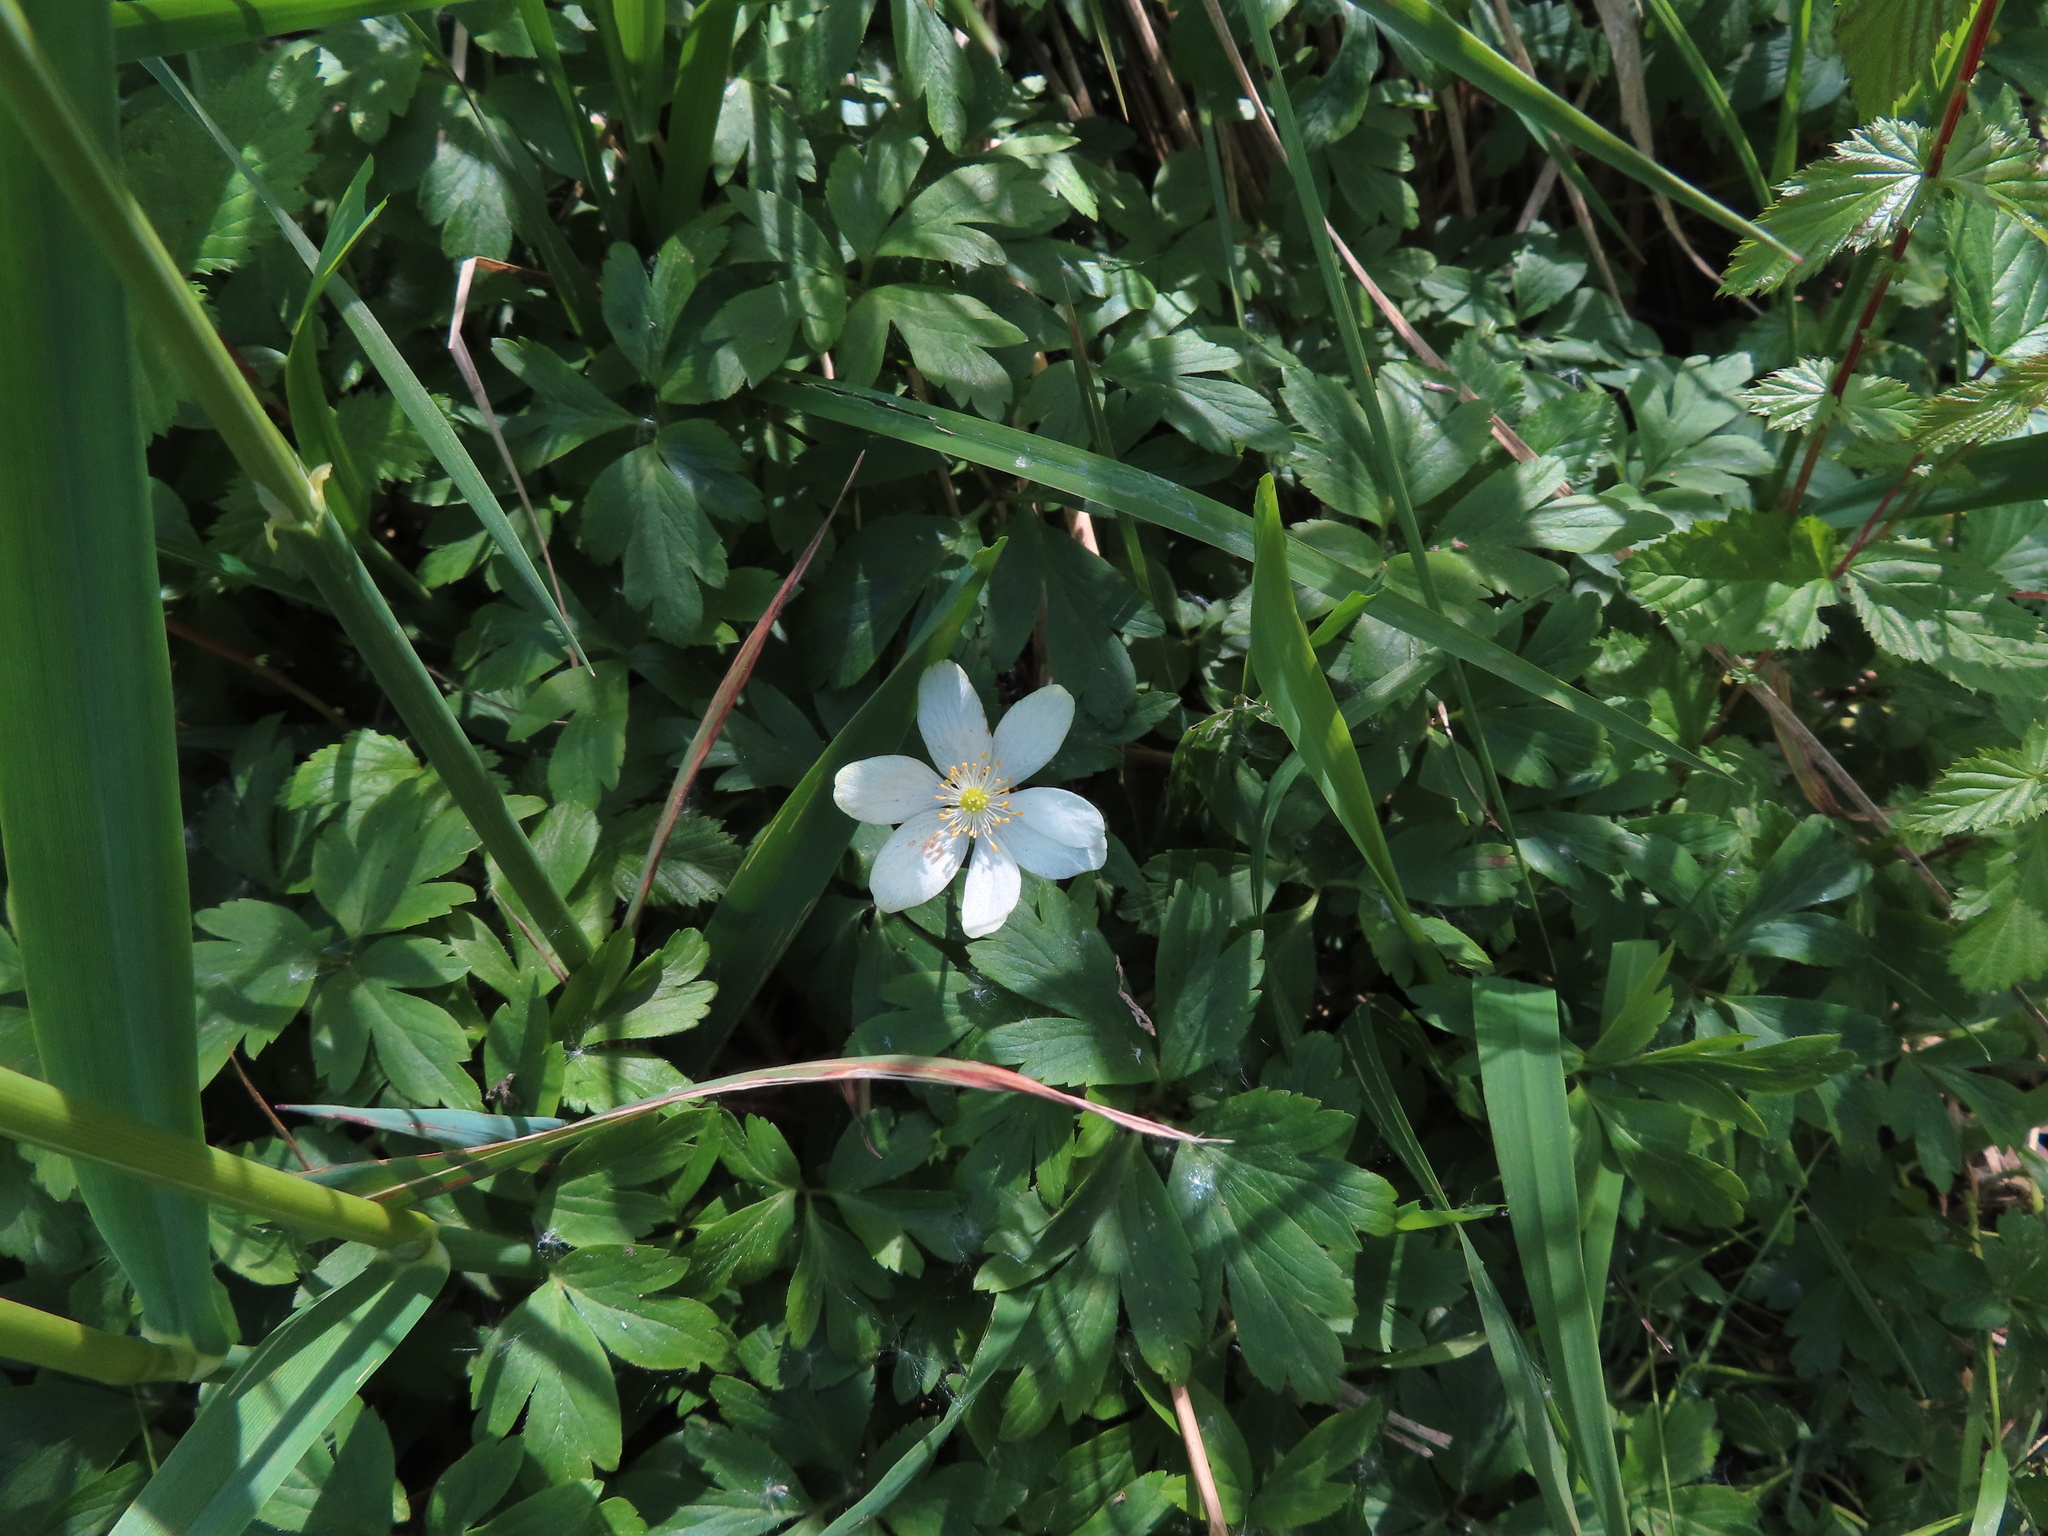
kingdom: Plantae
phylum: Tracheophyta
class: Magnoliopsida
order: Ranunculales
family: Ranunculaceae
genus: Anemone
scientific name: Anemone nemorosa
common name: Wood anemone
